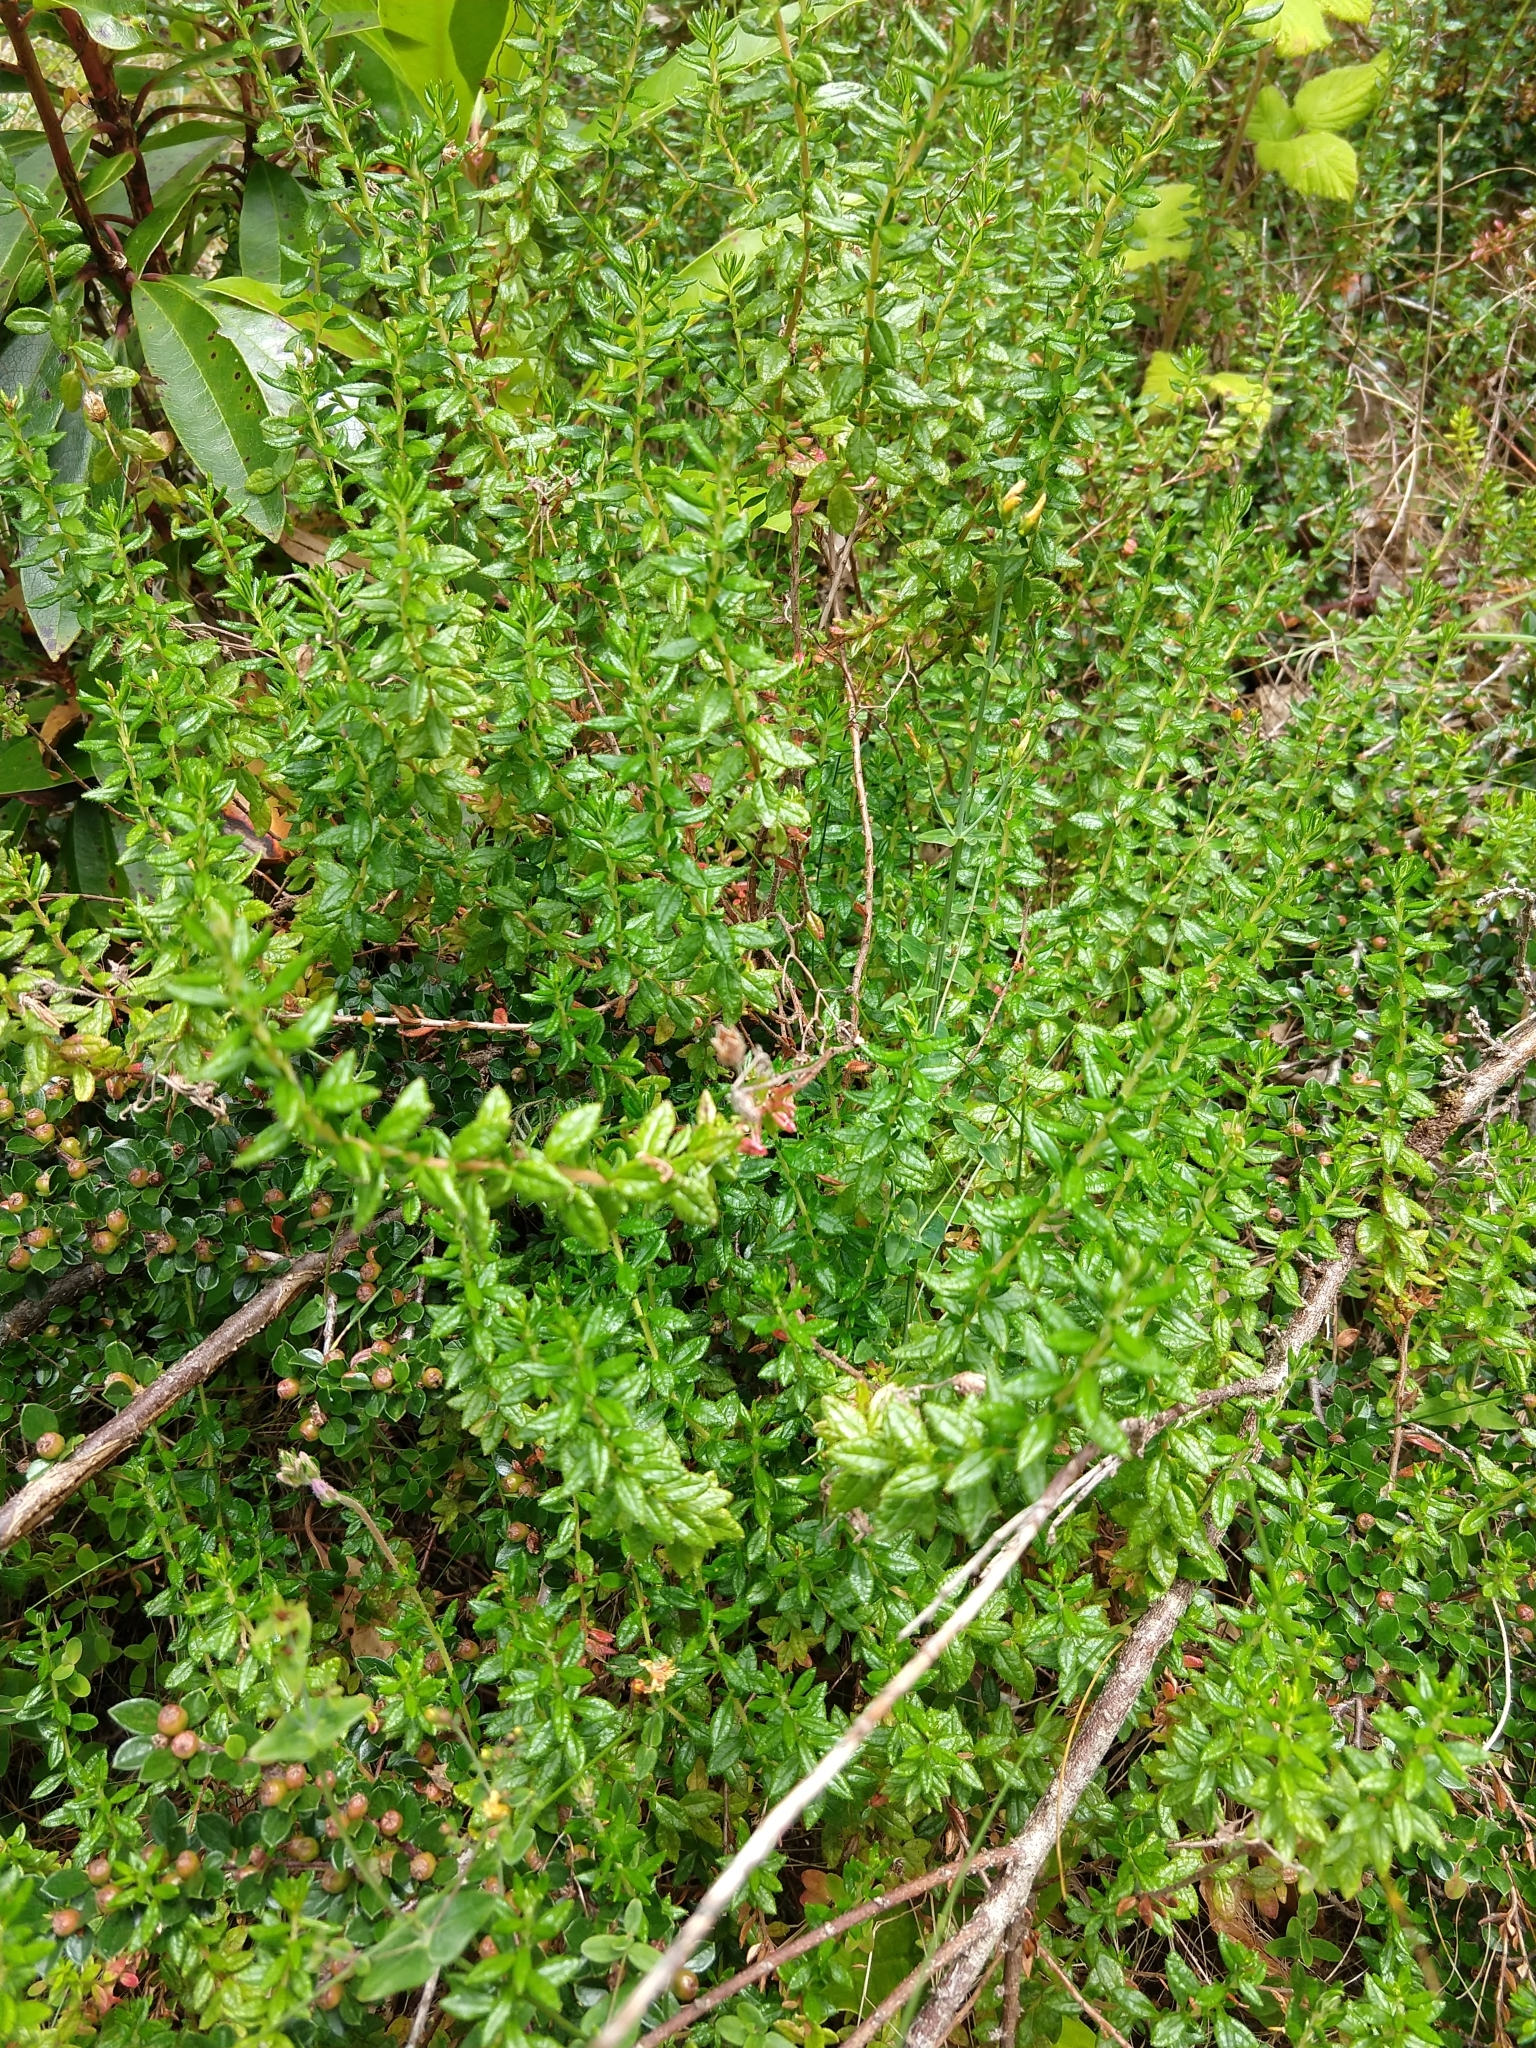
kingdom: Plantae
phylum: Tracheophyta
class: Magnoliopsida
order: Ericales
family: Ericaceae
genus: Daboecia
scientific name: Daboecia cantabrica
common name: St. dabeoc's-heath
